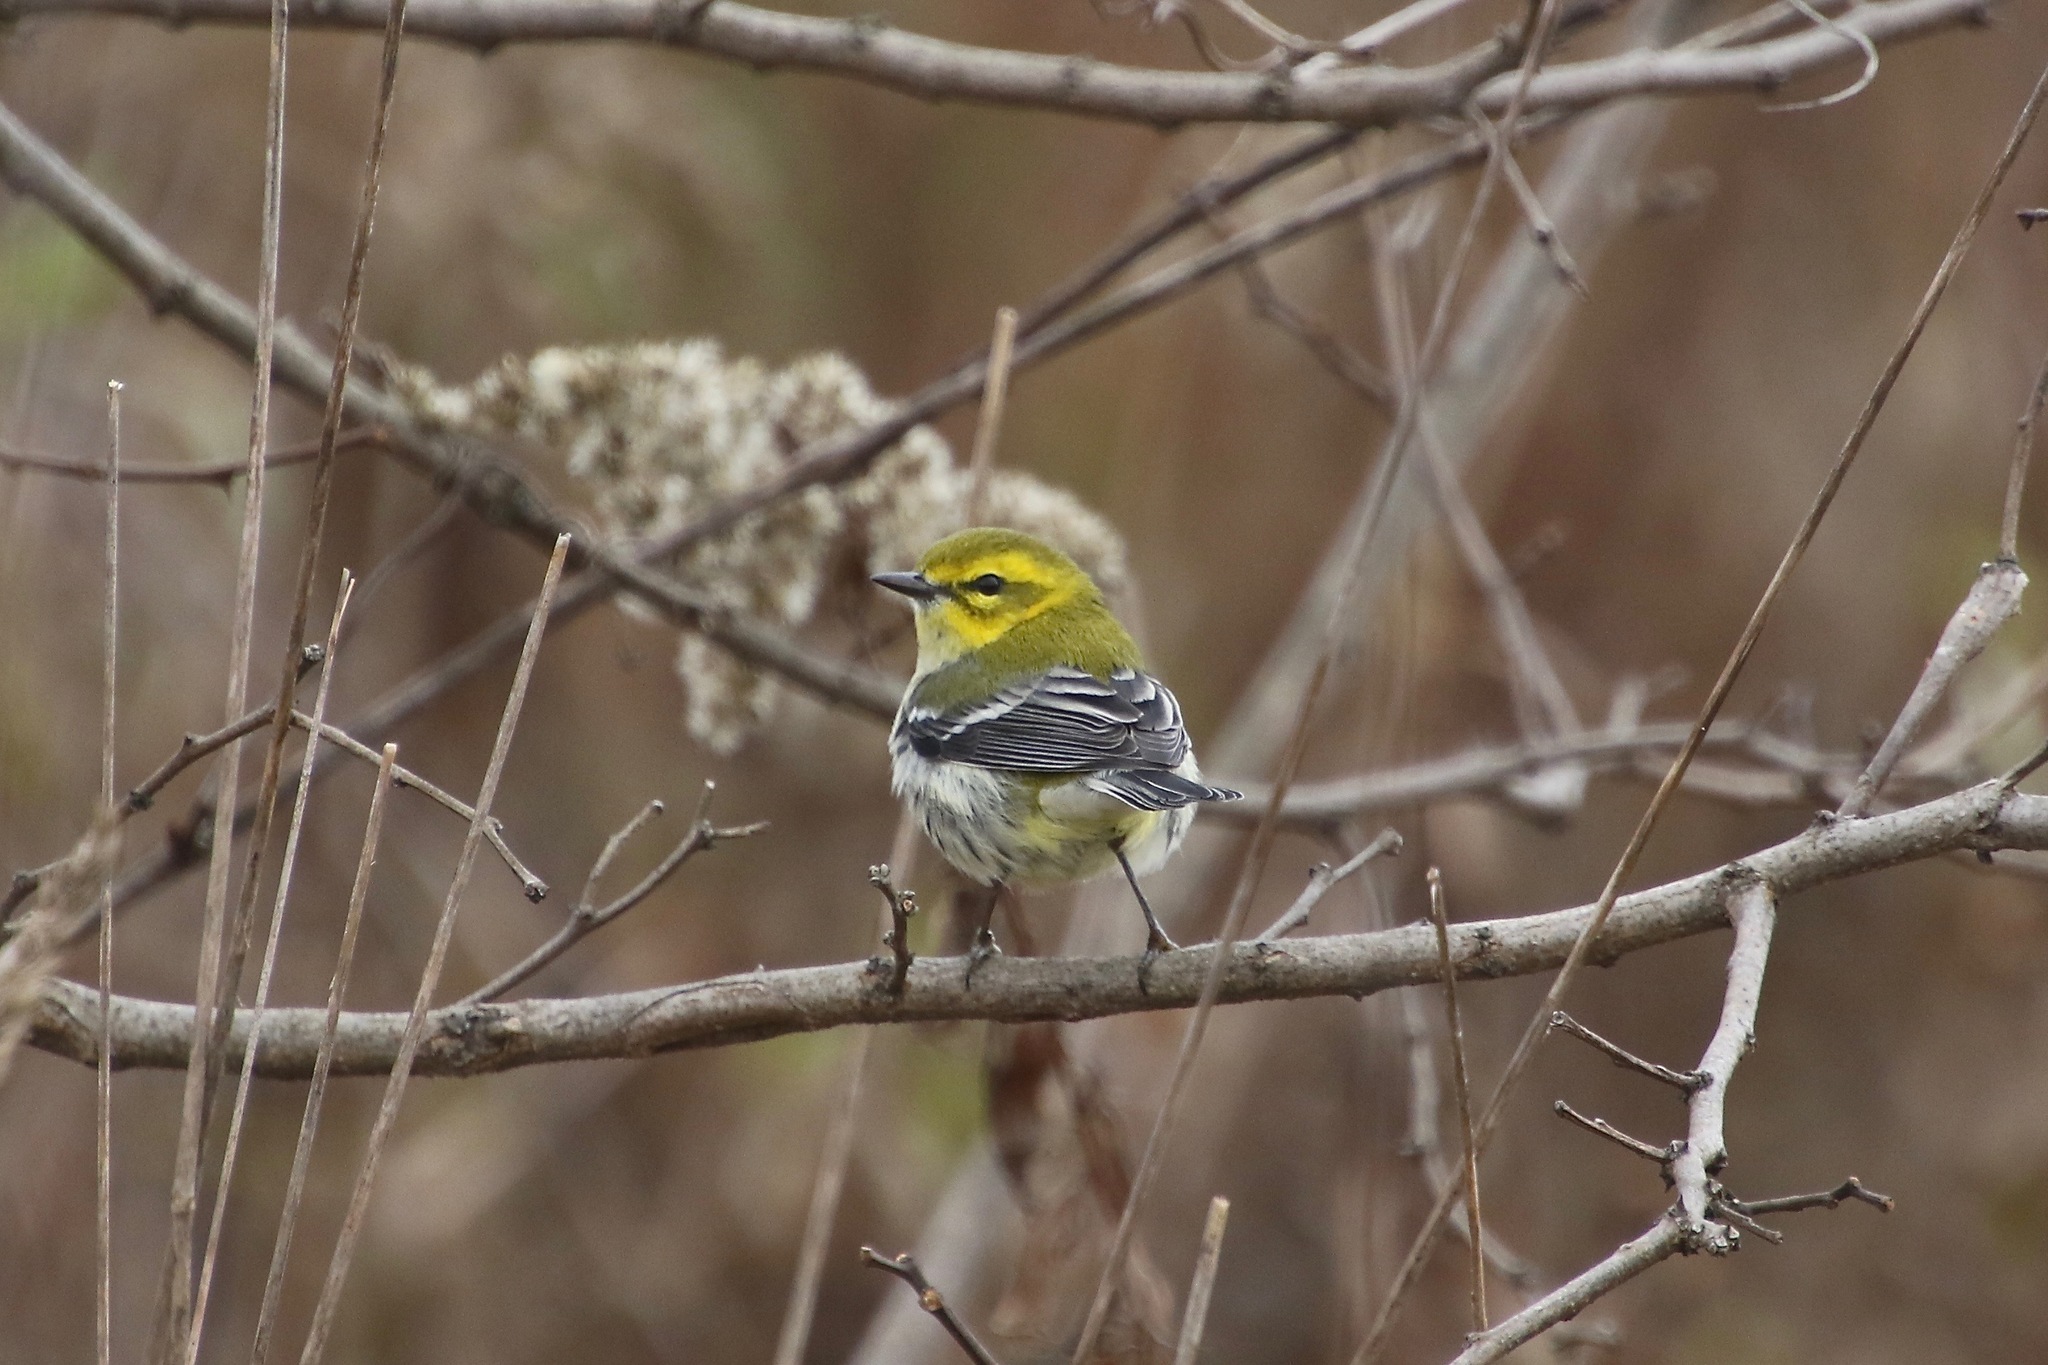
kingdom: Animalia
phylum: Chordata
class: Aves
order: Passeriformes
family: Parulidae
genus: Setophaga
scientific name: Setophaga virens
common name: Black-throated green warbler
